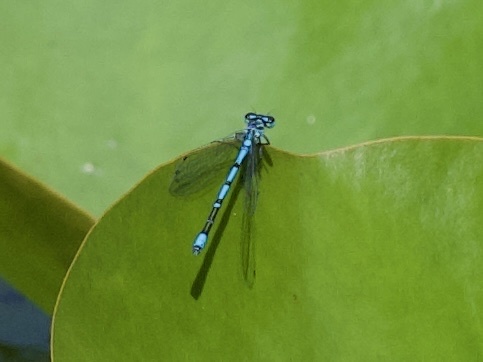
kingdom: Animalia
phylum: Arthropoda
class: Insecta
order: Odonata
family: Coenagrionidae
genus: Coenagrion
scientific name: Coenagrion puella
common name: Azure damselfly
